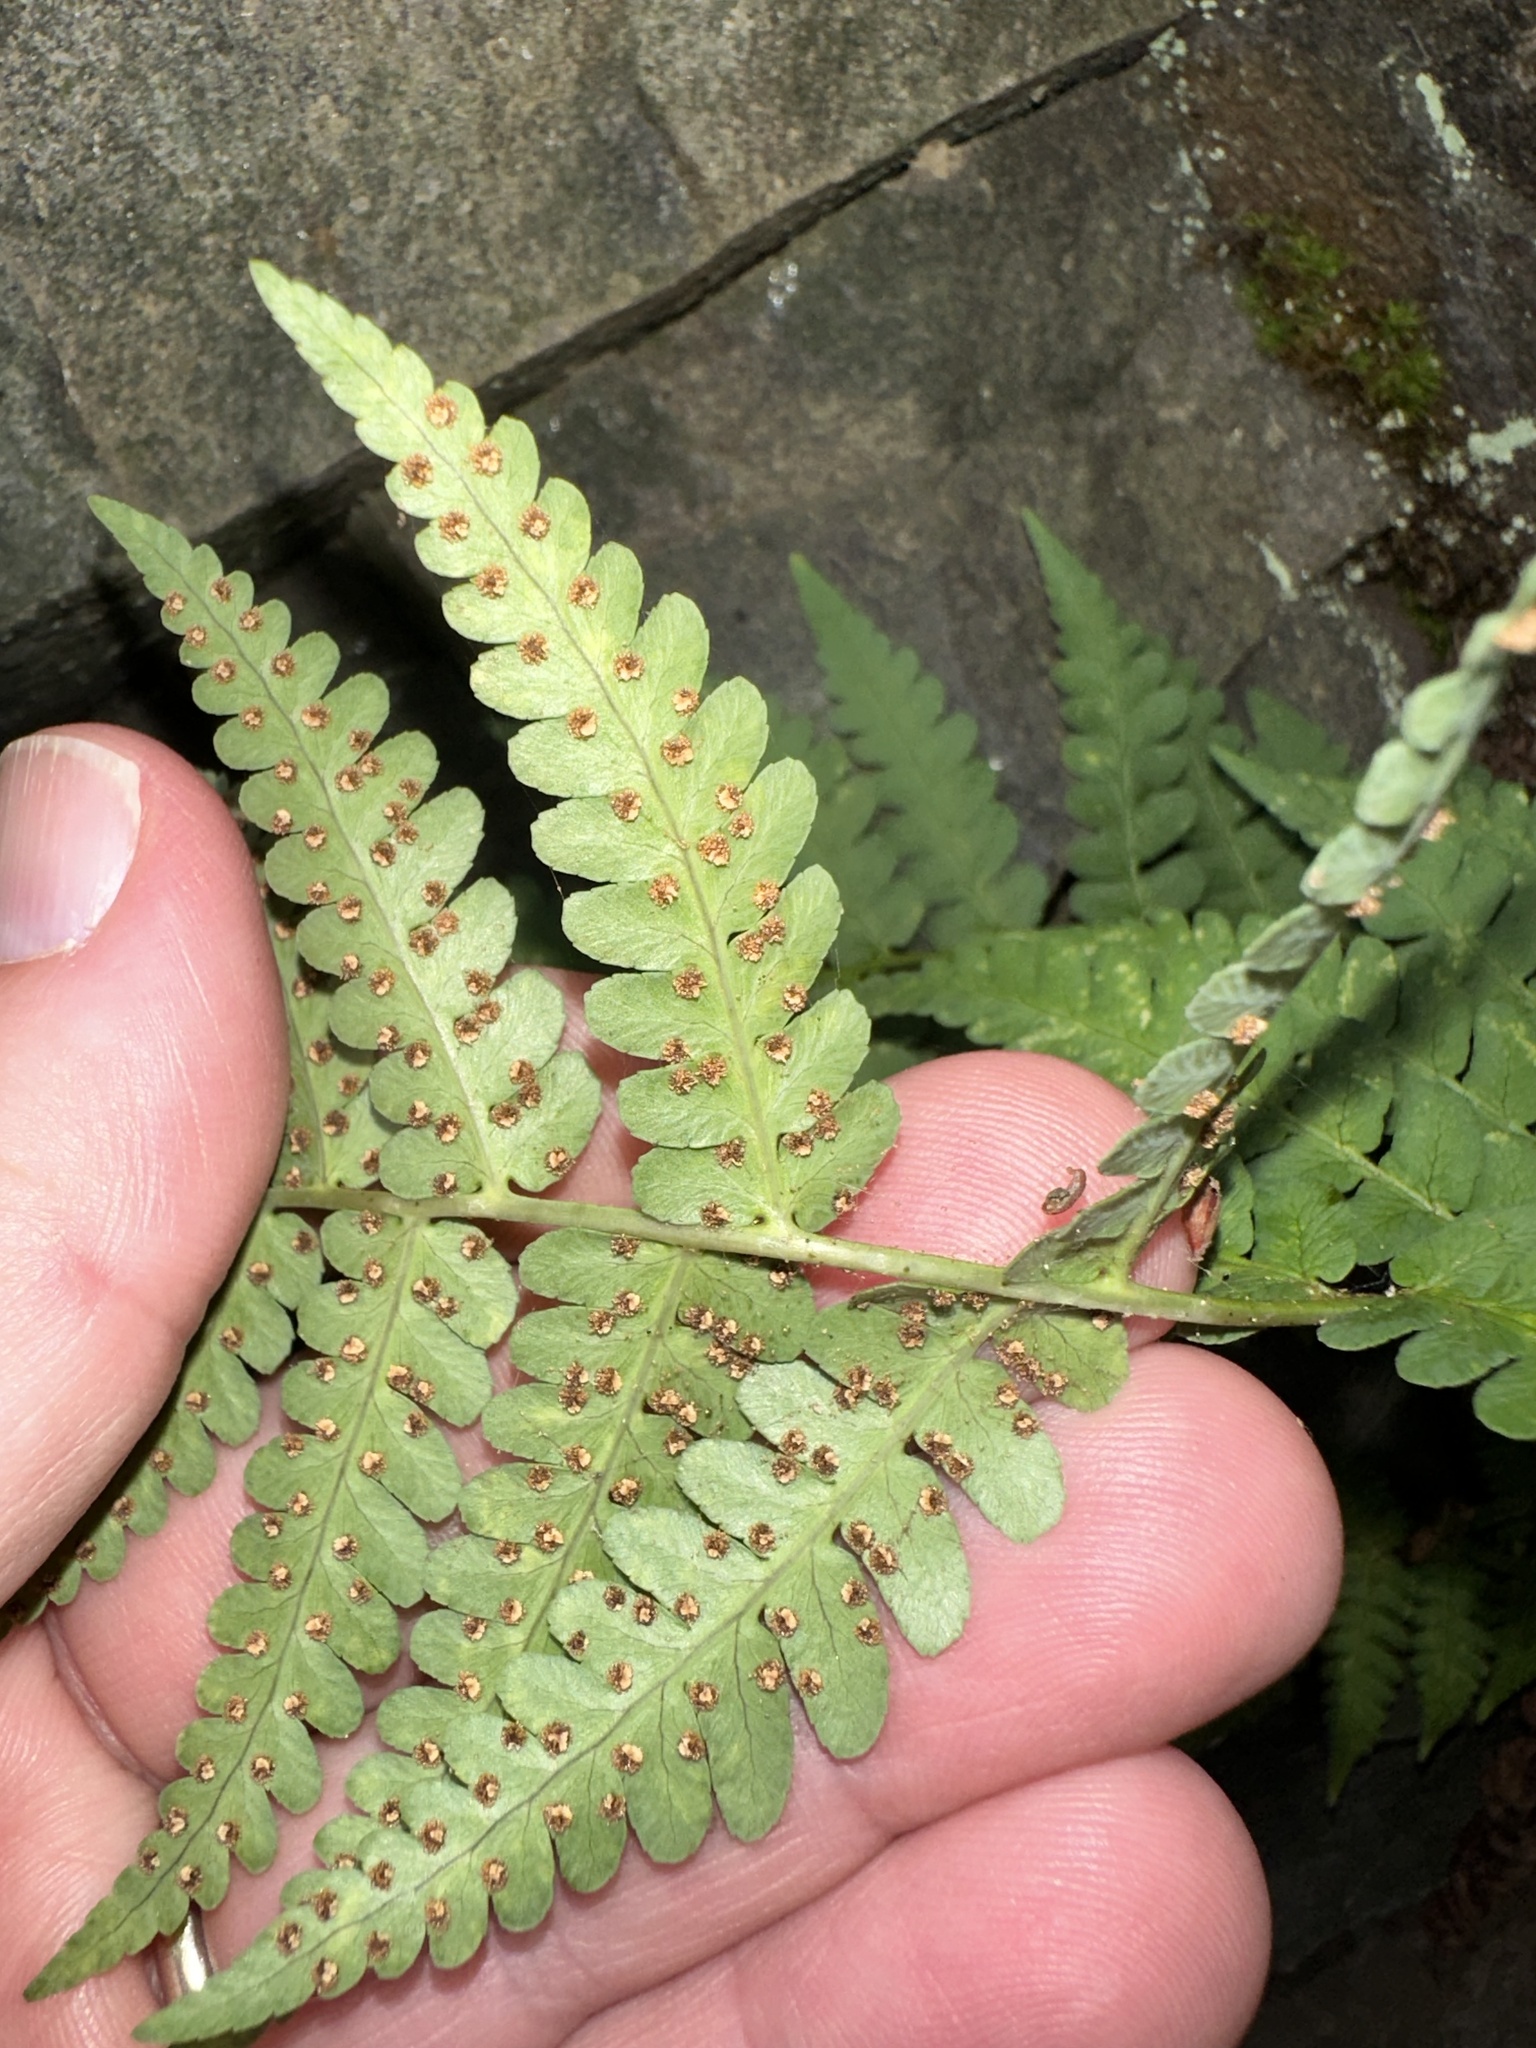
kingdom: Plantae
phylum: Tracheophyta
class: Polypodiopsida
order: Polypodiales
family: Dryopteridaceae
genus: Dryopteris
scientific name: Dryopteris marginalis
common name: Marginal wood fern
